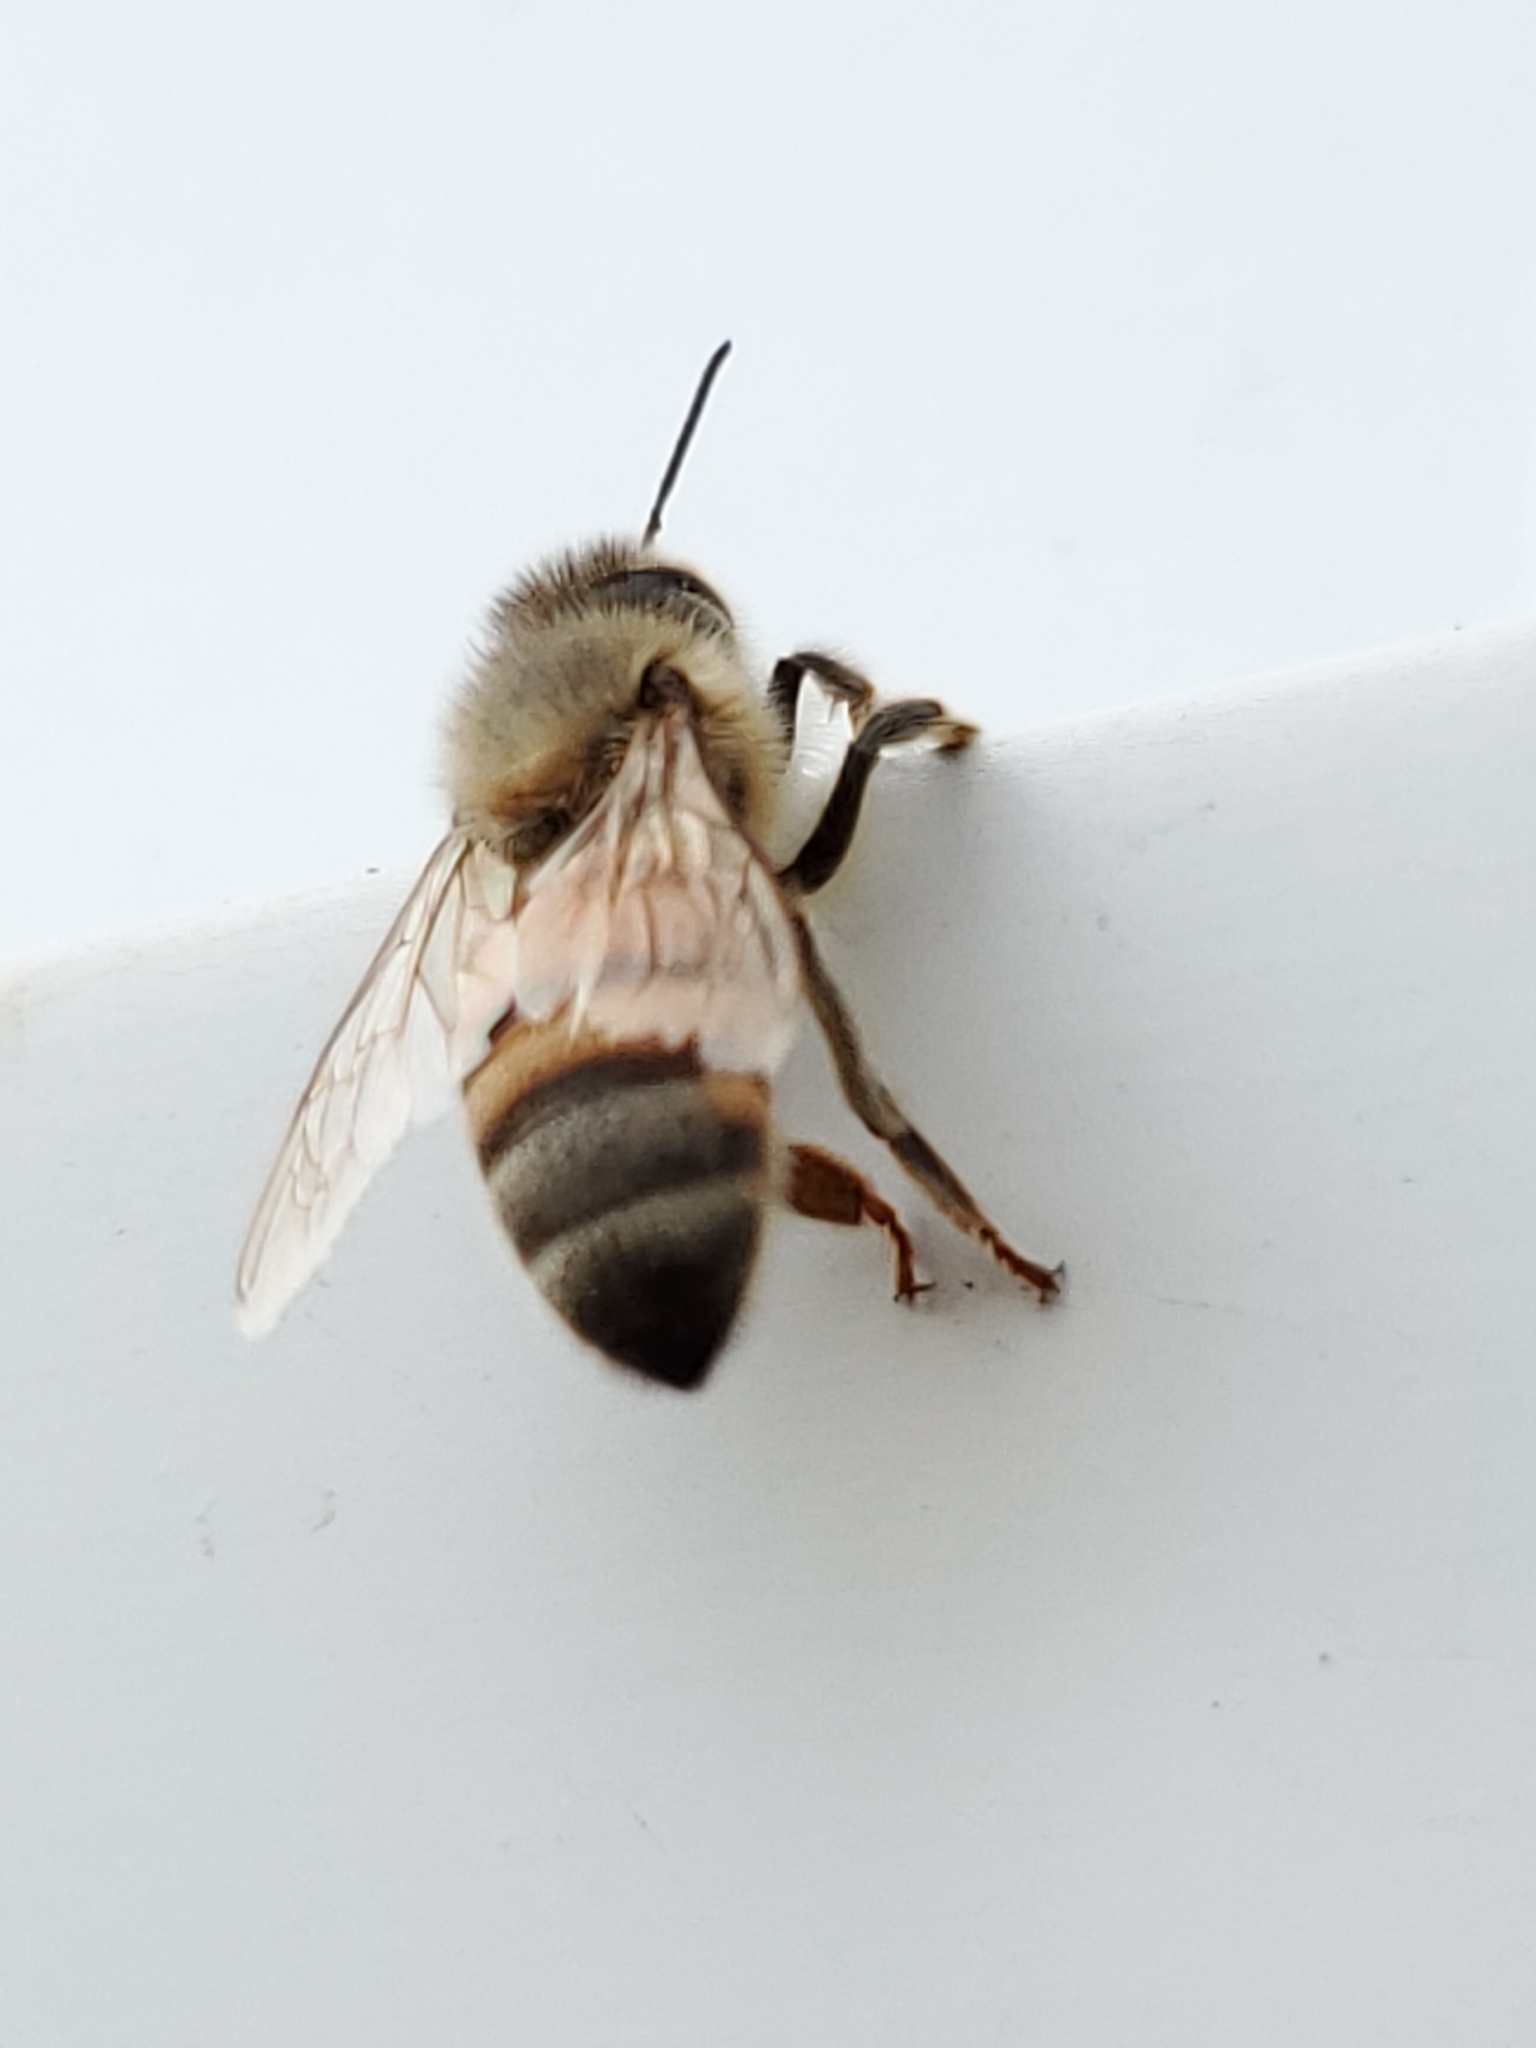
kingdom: Animalia
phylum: Arthropoda
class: Insecta
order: Hymenoptera
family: Apidae
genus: Apis
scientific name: Apis mellifera
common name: Honey bee
